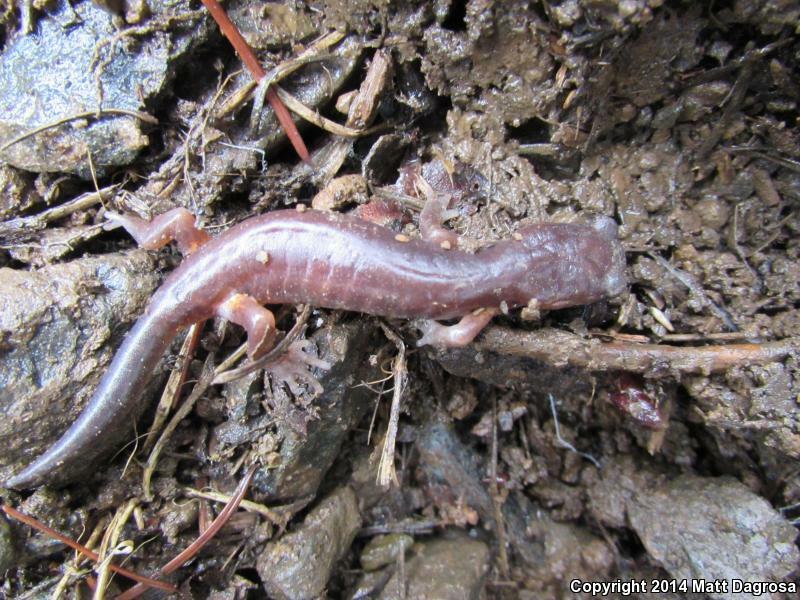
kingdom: Animalia
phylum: Chordata
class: Amphibia
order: Caudata
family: Plethodontidae
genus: Ensatina
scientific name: Ensatina eschscholtzii
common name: Ensatina
